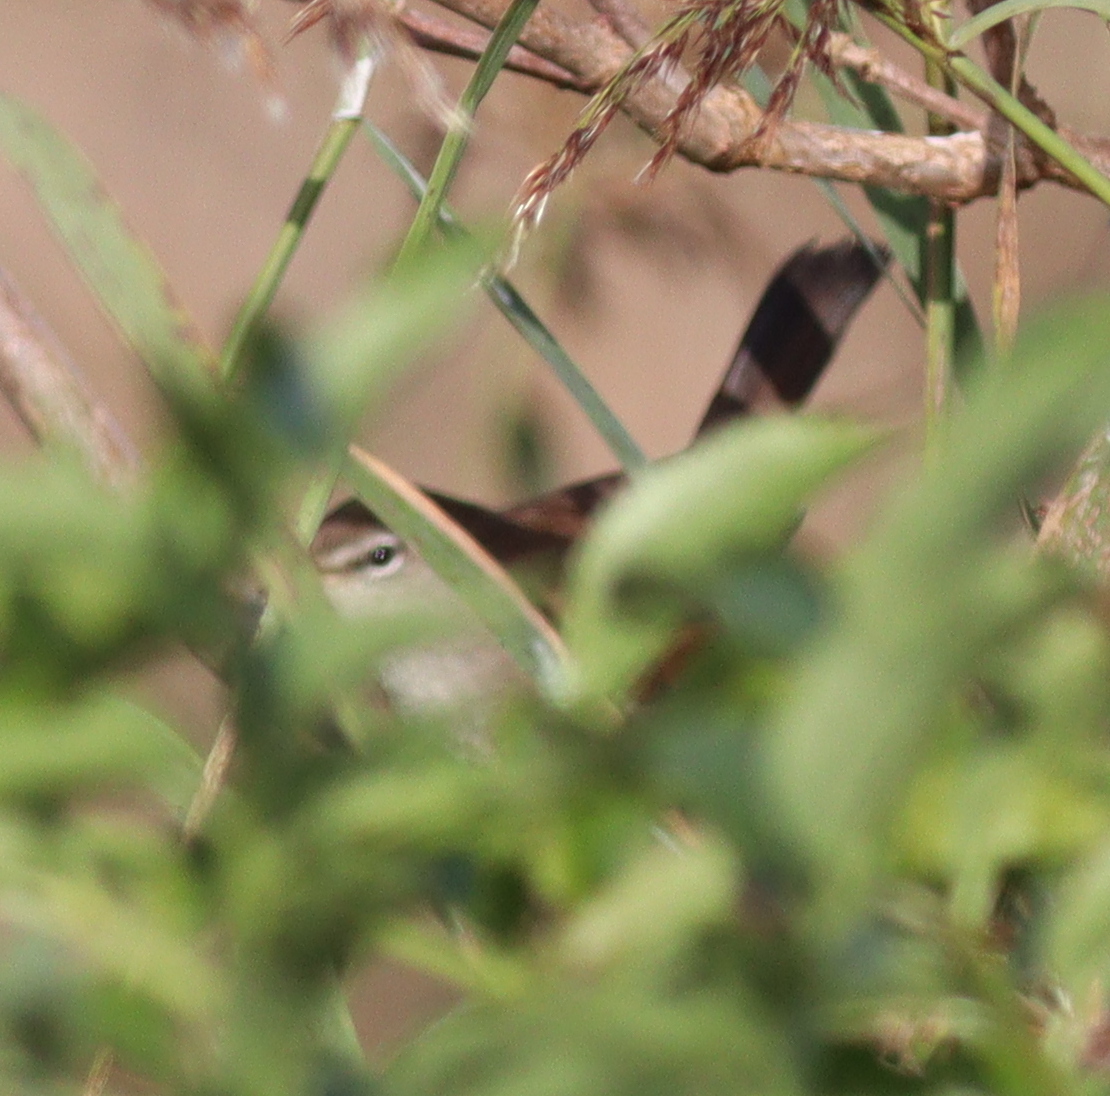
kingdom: Animalia
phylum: Chordata
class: Aves
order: Passeriformes
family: Cettiidae
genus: Cettia
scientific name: Cettia cetti
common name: Cetti's warbler
